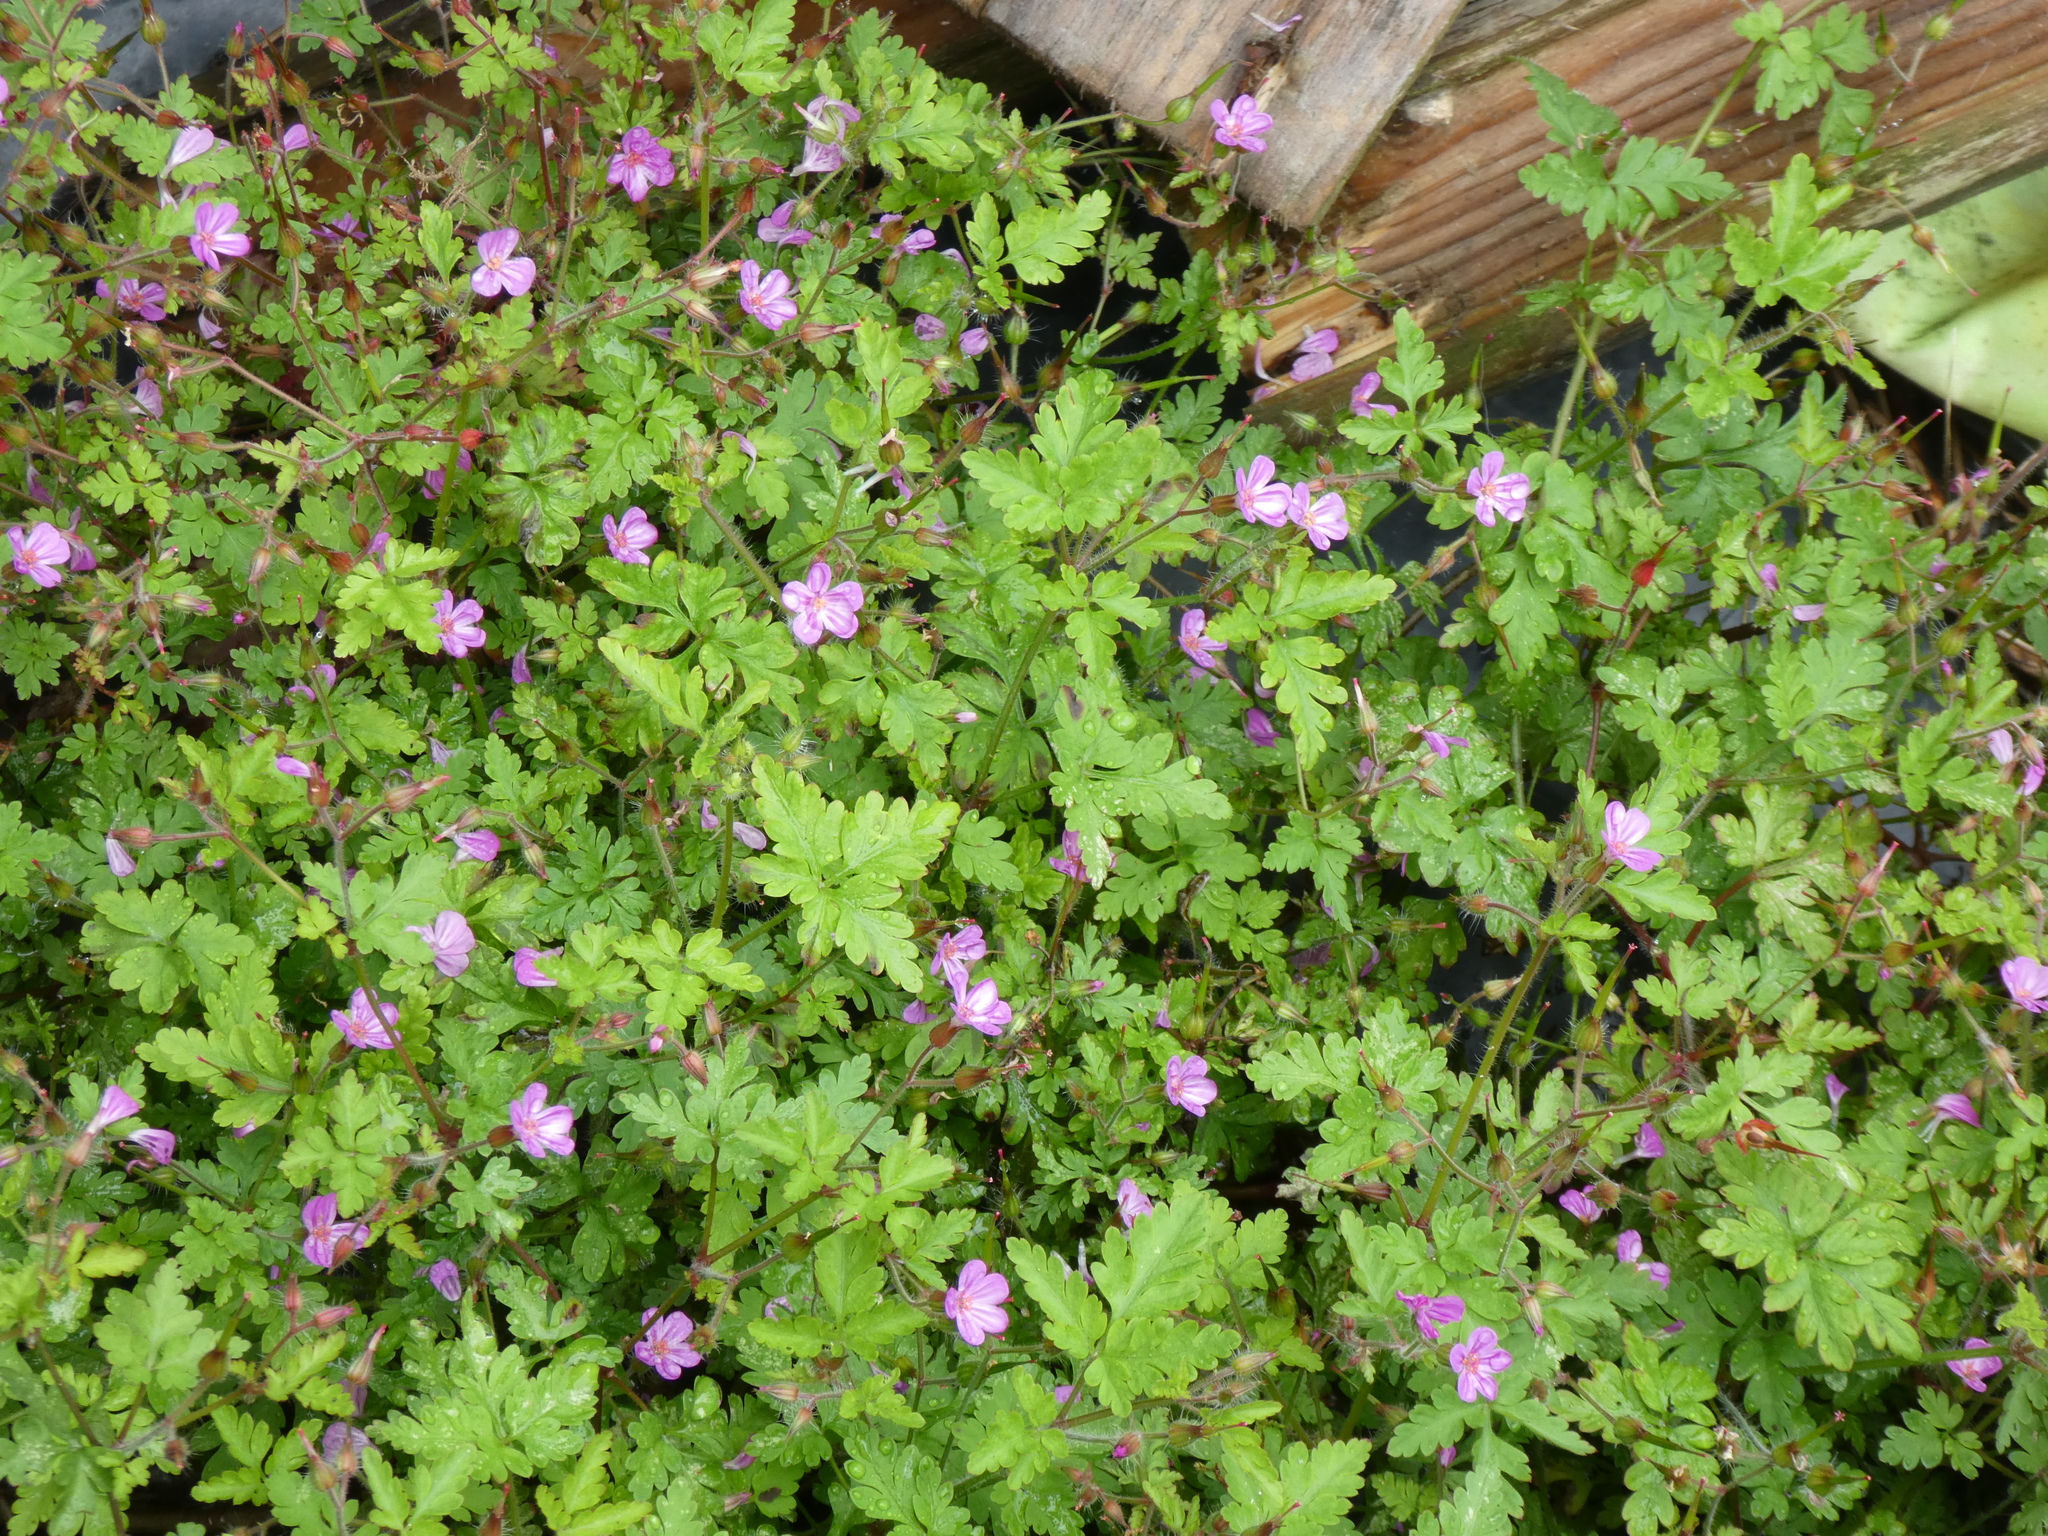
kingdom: Plantae
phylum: Tracheophyta
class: Magnoliopsida
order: Geraniales
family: Geraniaceae
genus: Geranium
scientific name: Geranium robertianum
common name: Herb-robert
